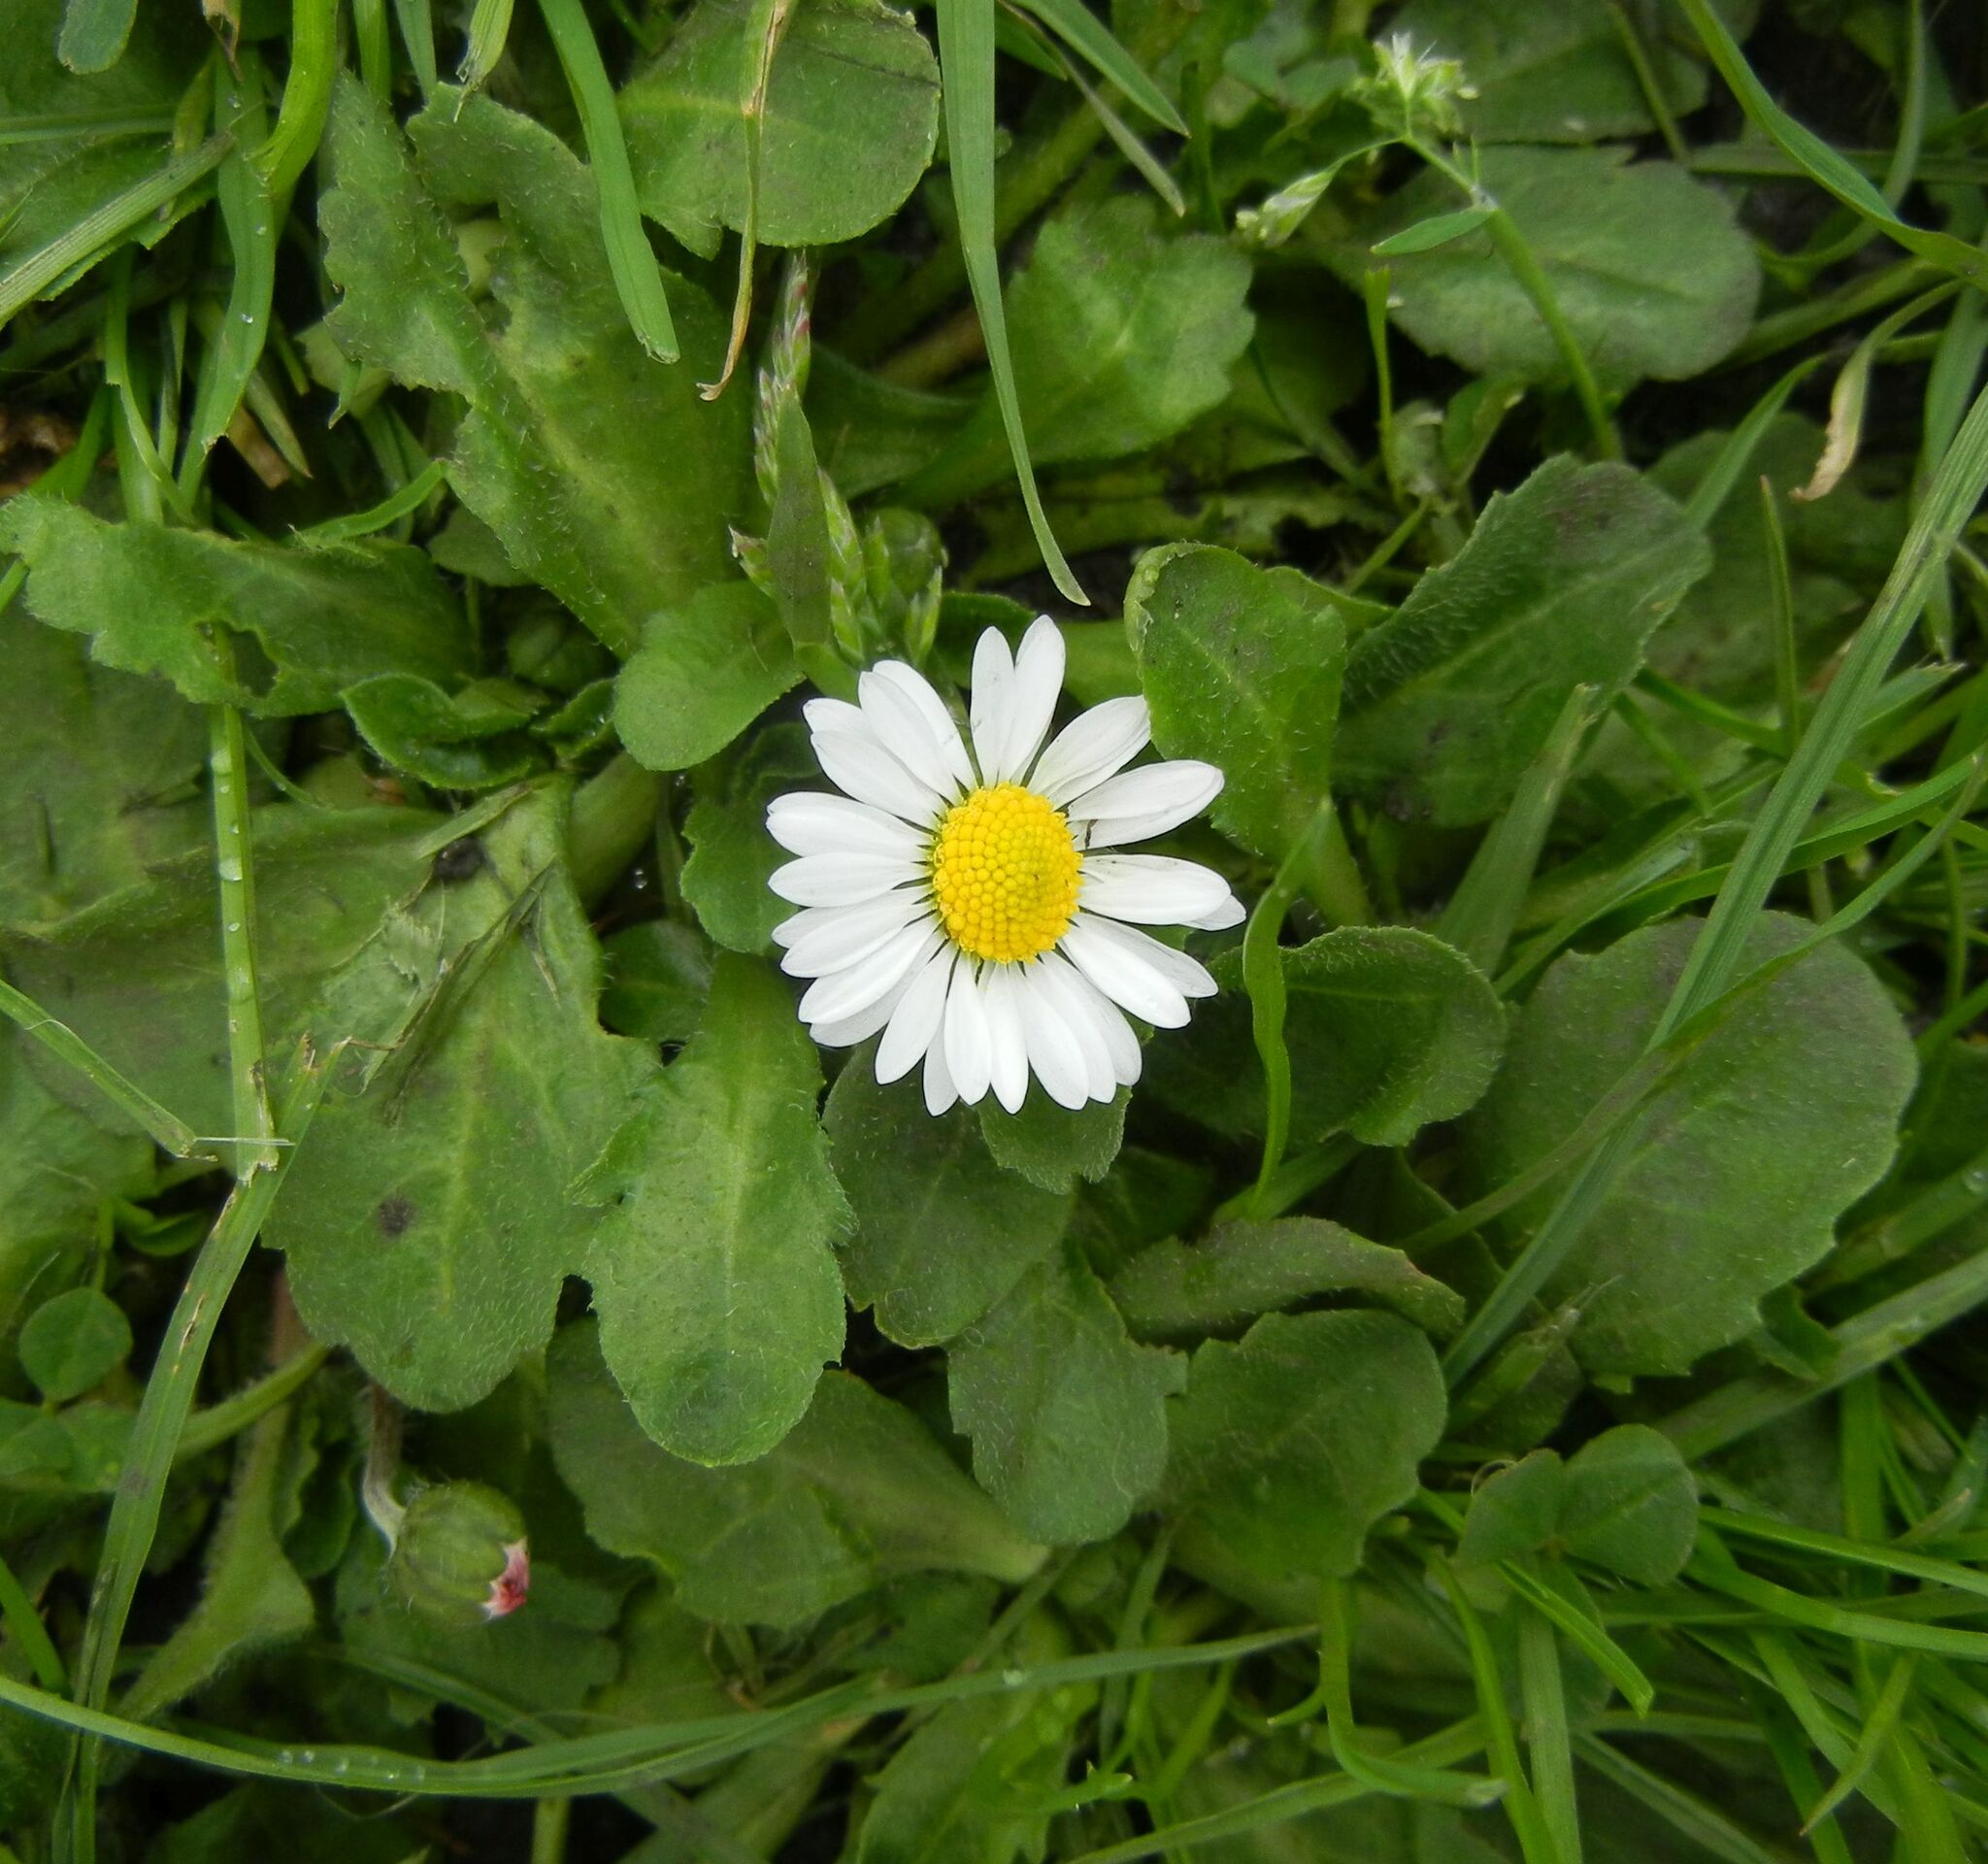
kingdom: Plantae
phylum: Tracheophyta
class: Magnoliopsida
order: Asterales
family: Asteraceae
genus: Bellis
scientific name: Bellis perennis
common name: Lawndaisy
